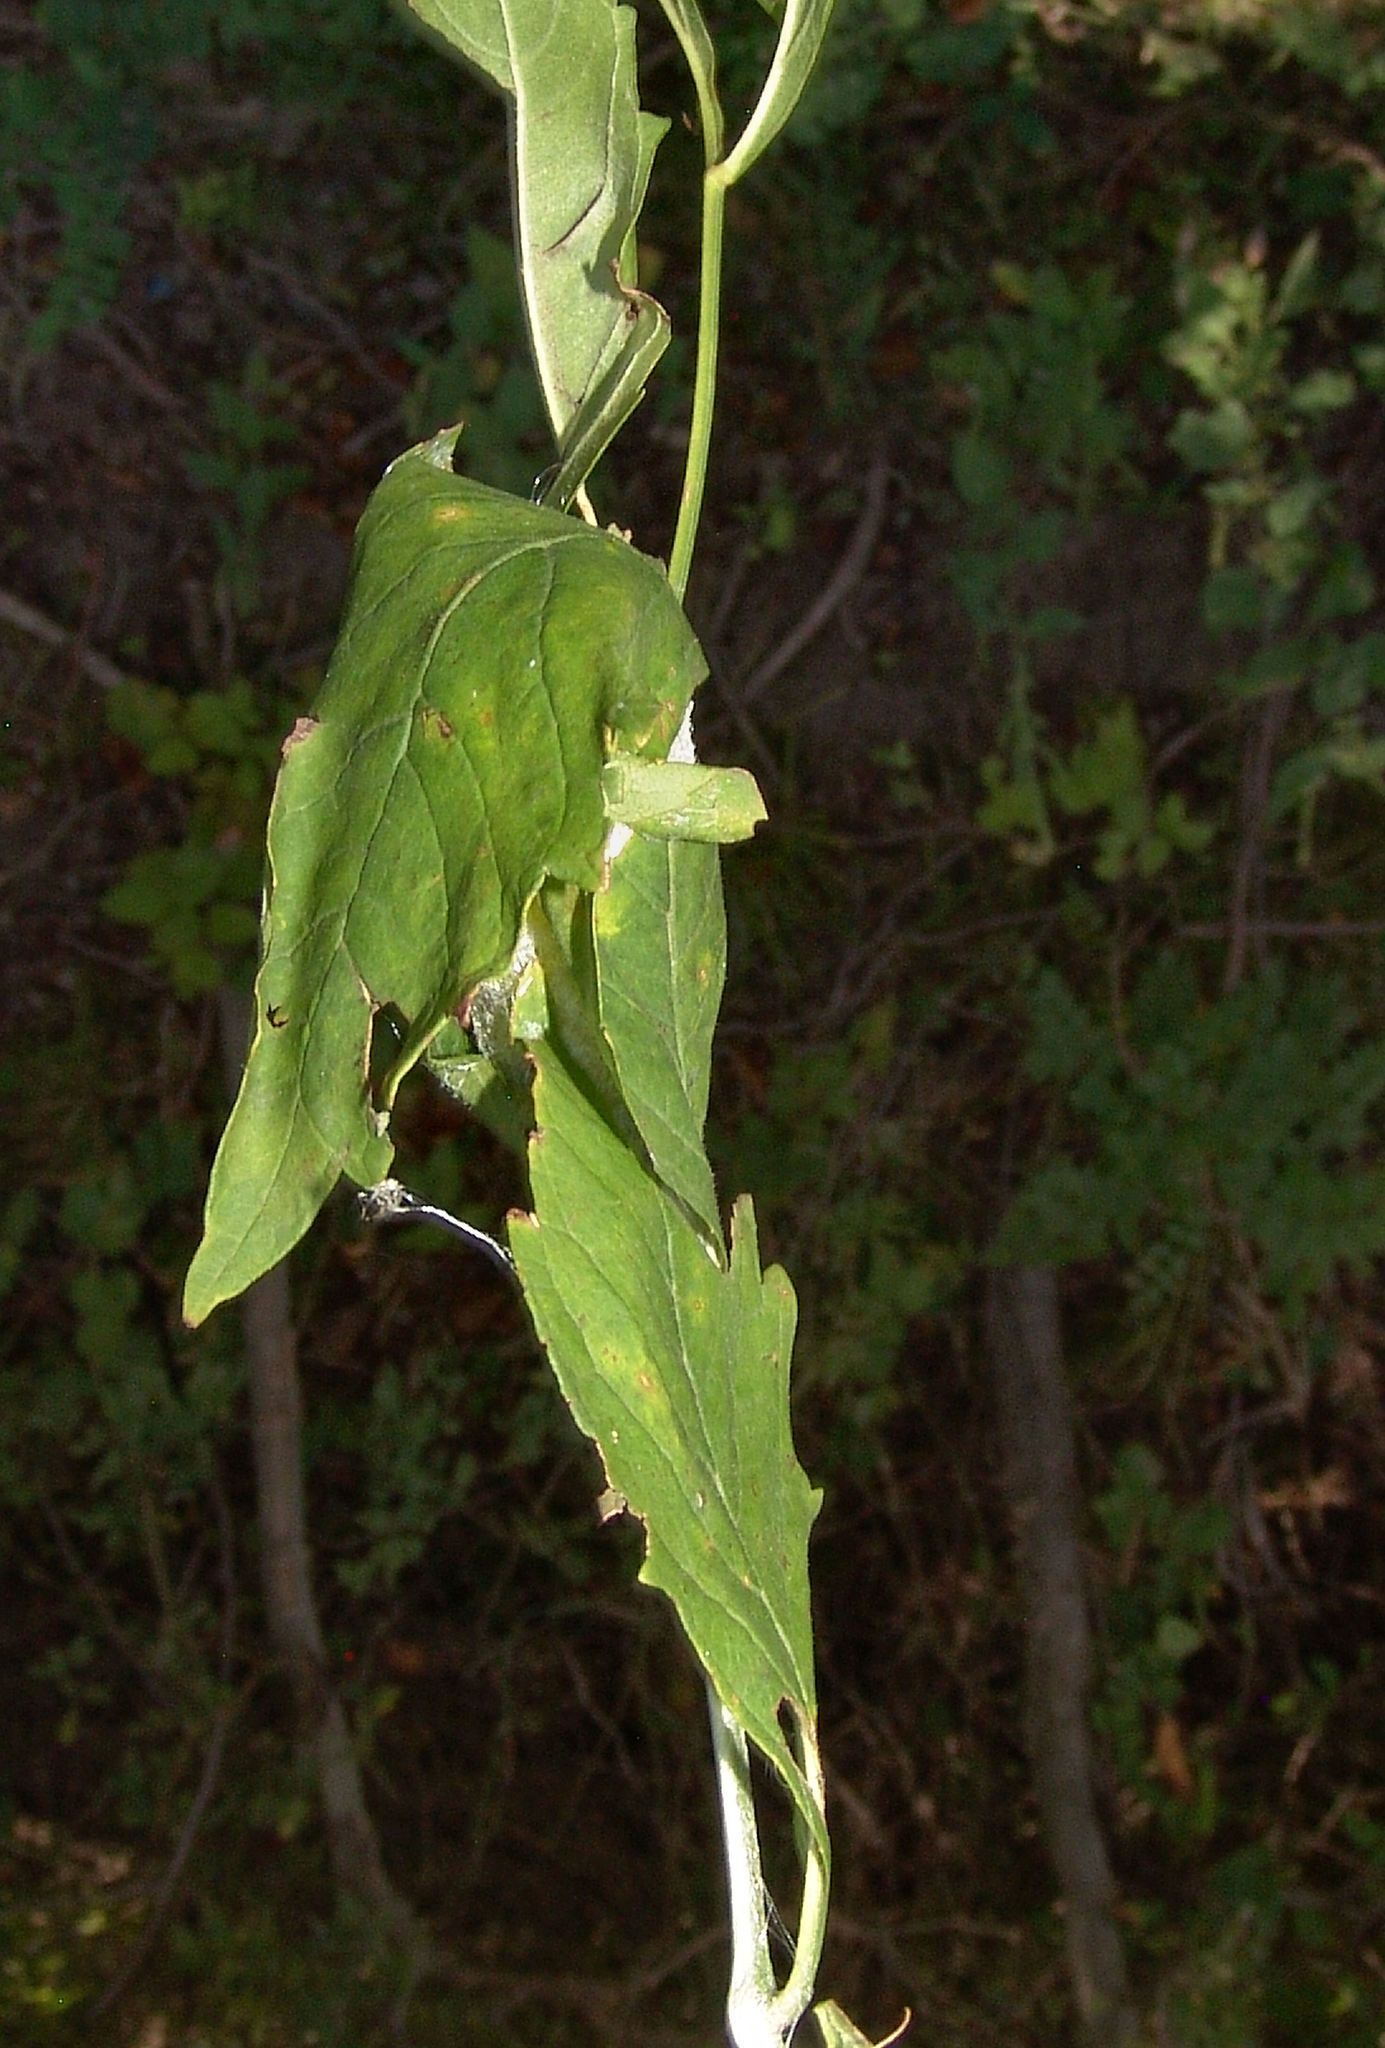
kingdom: Animalia
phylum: Arthropoda
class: Insecta
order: Lepidoptera
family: Saturniidae
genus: Antheraea
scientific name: Antheraea polyphemus
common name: Polyphemus moth
